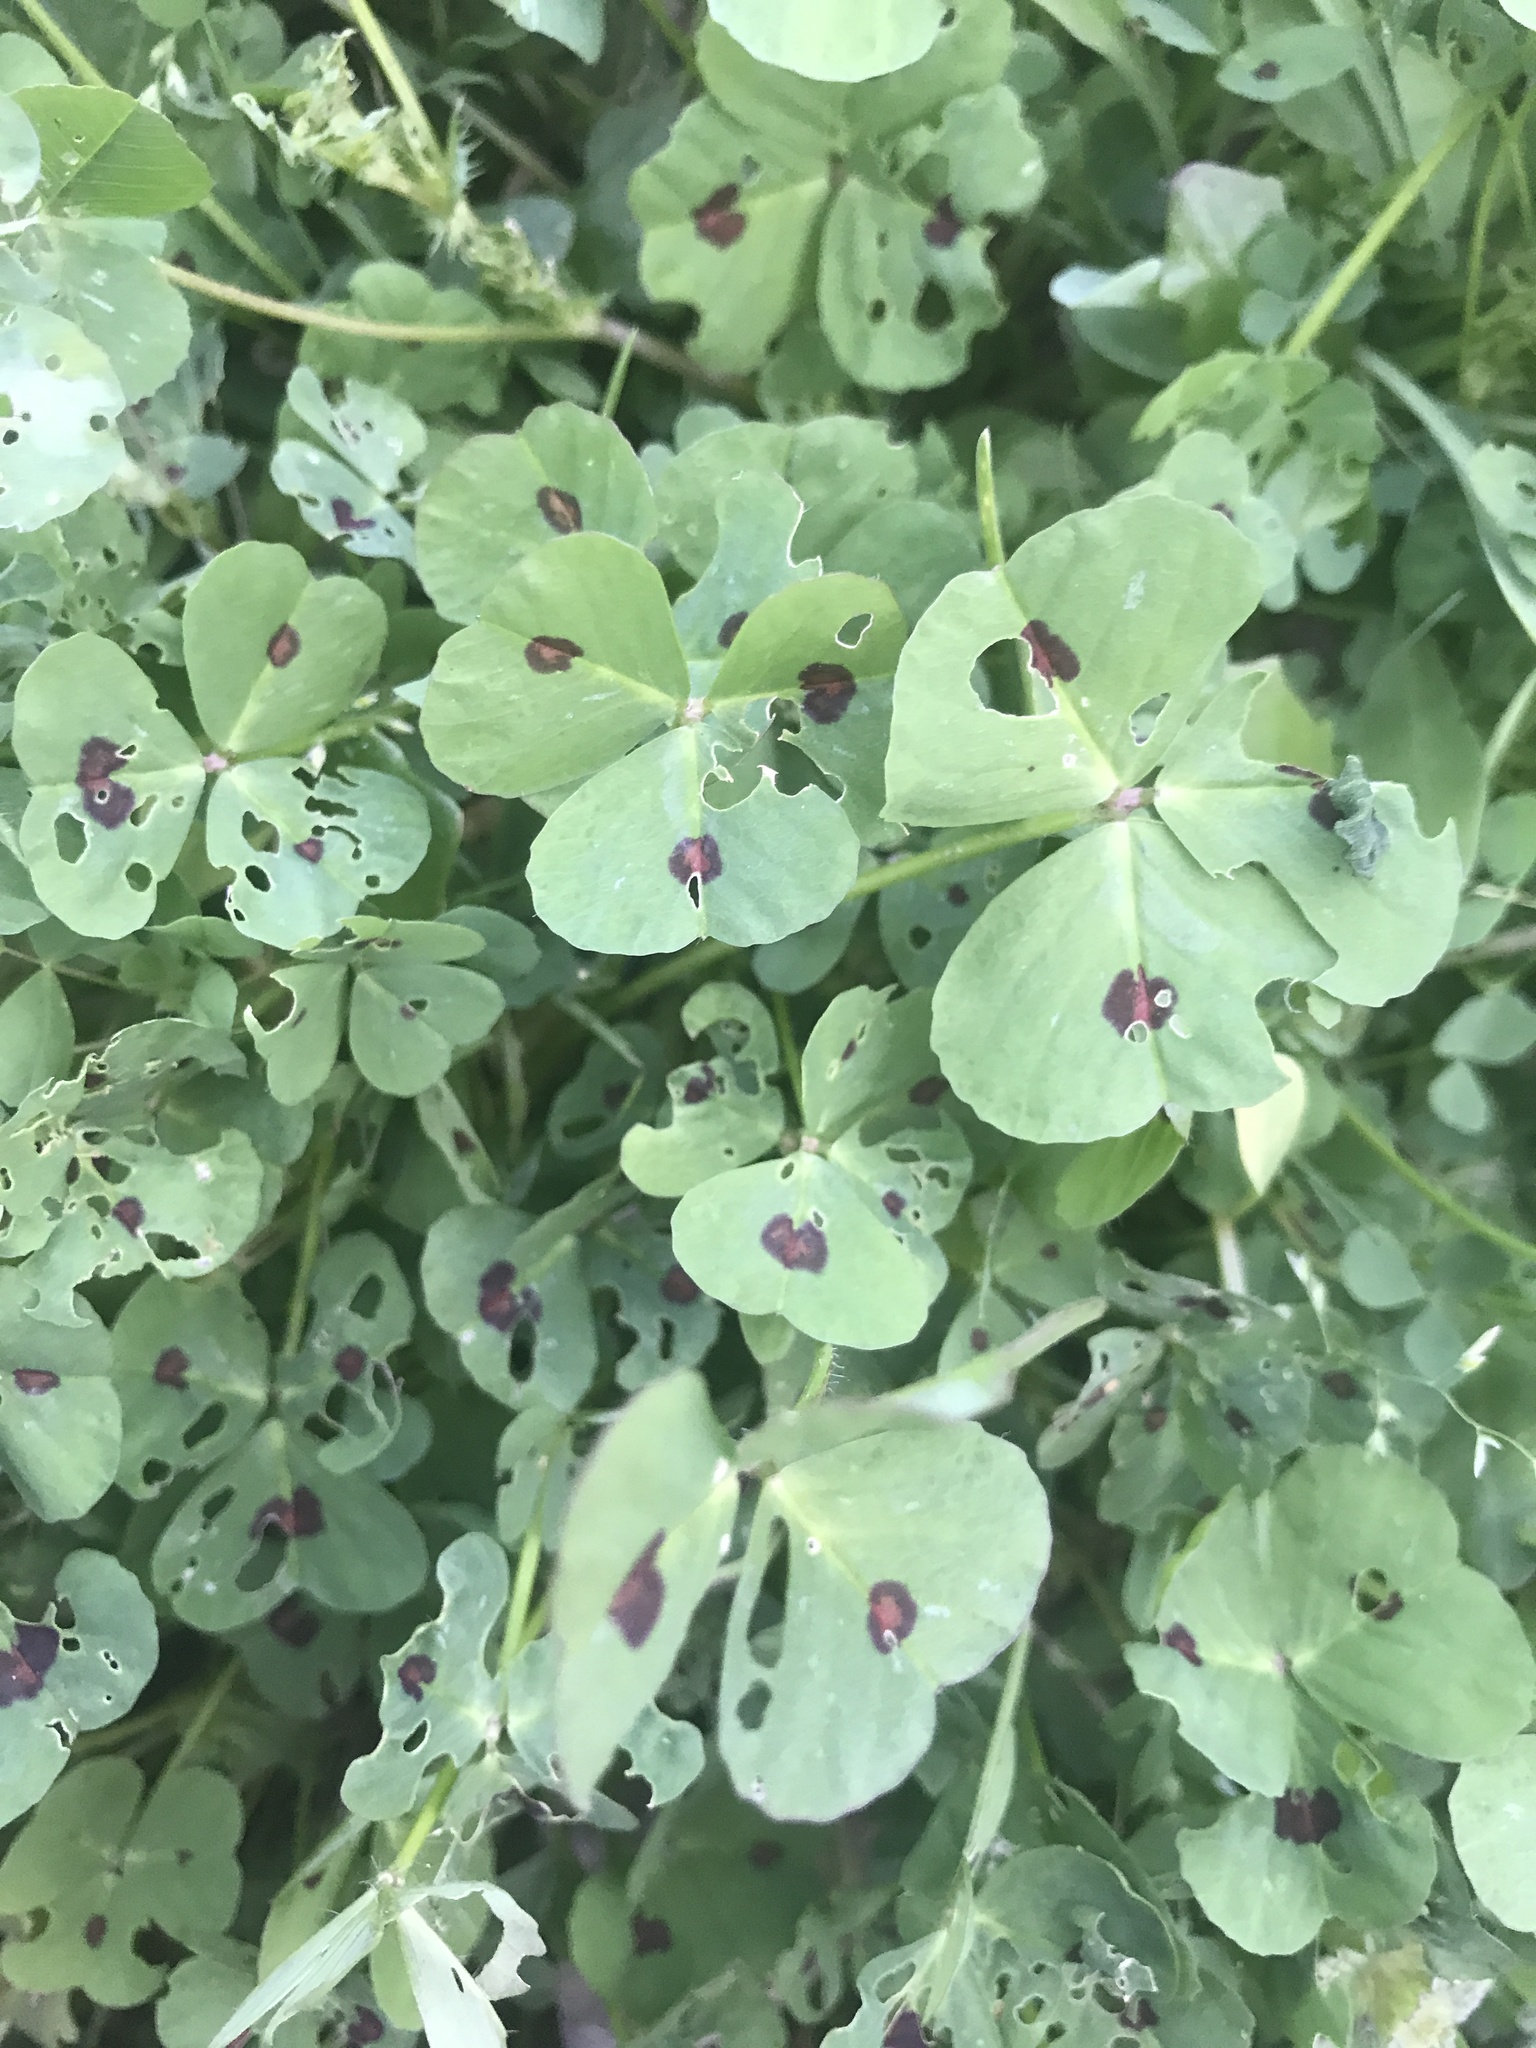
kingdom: Plantae
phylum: Tracheophyta
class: Magnoliopsida
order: Fabales
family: Fabaceae
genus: Medicago
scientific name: Medicago arabica
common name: Spotted medick
